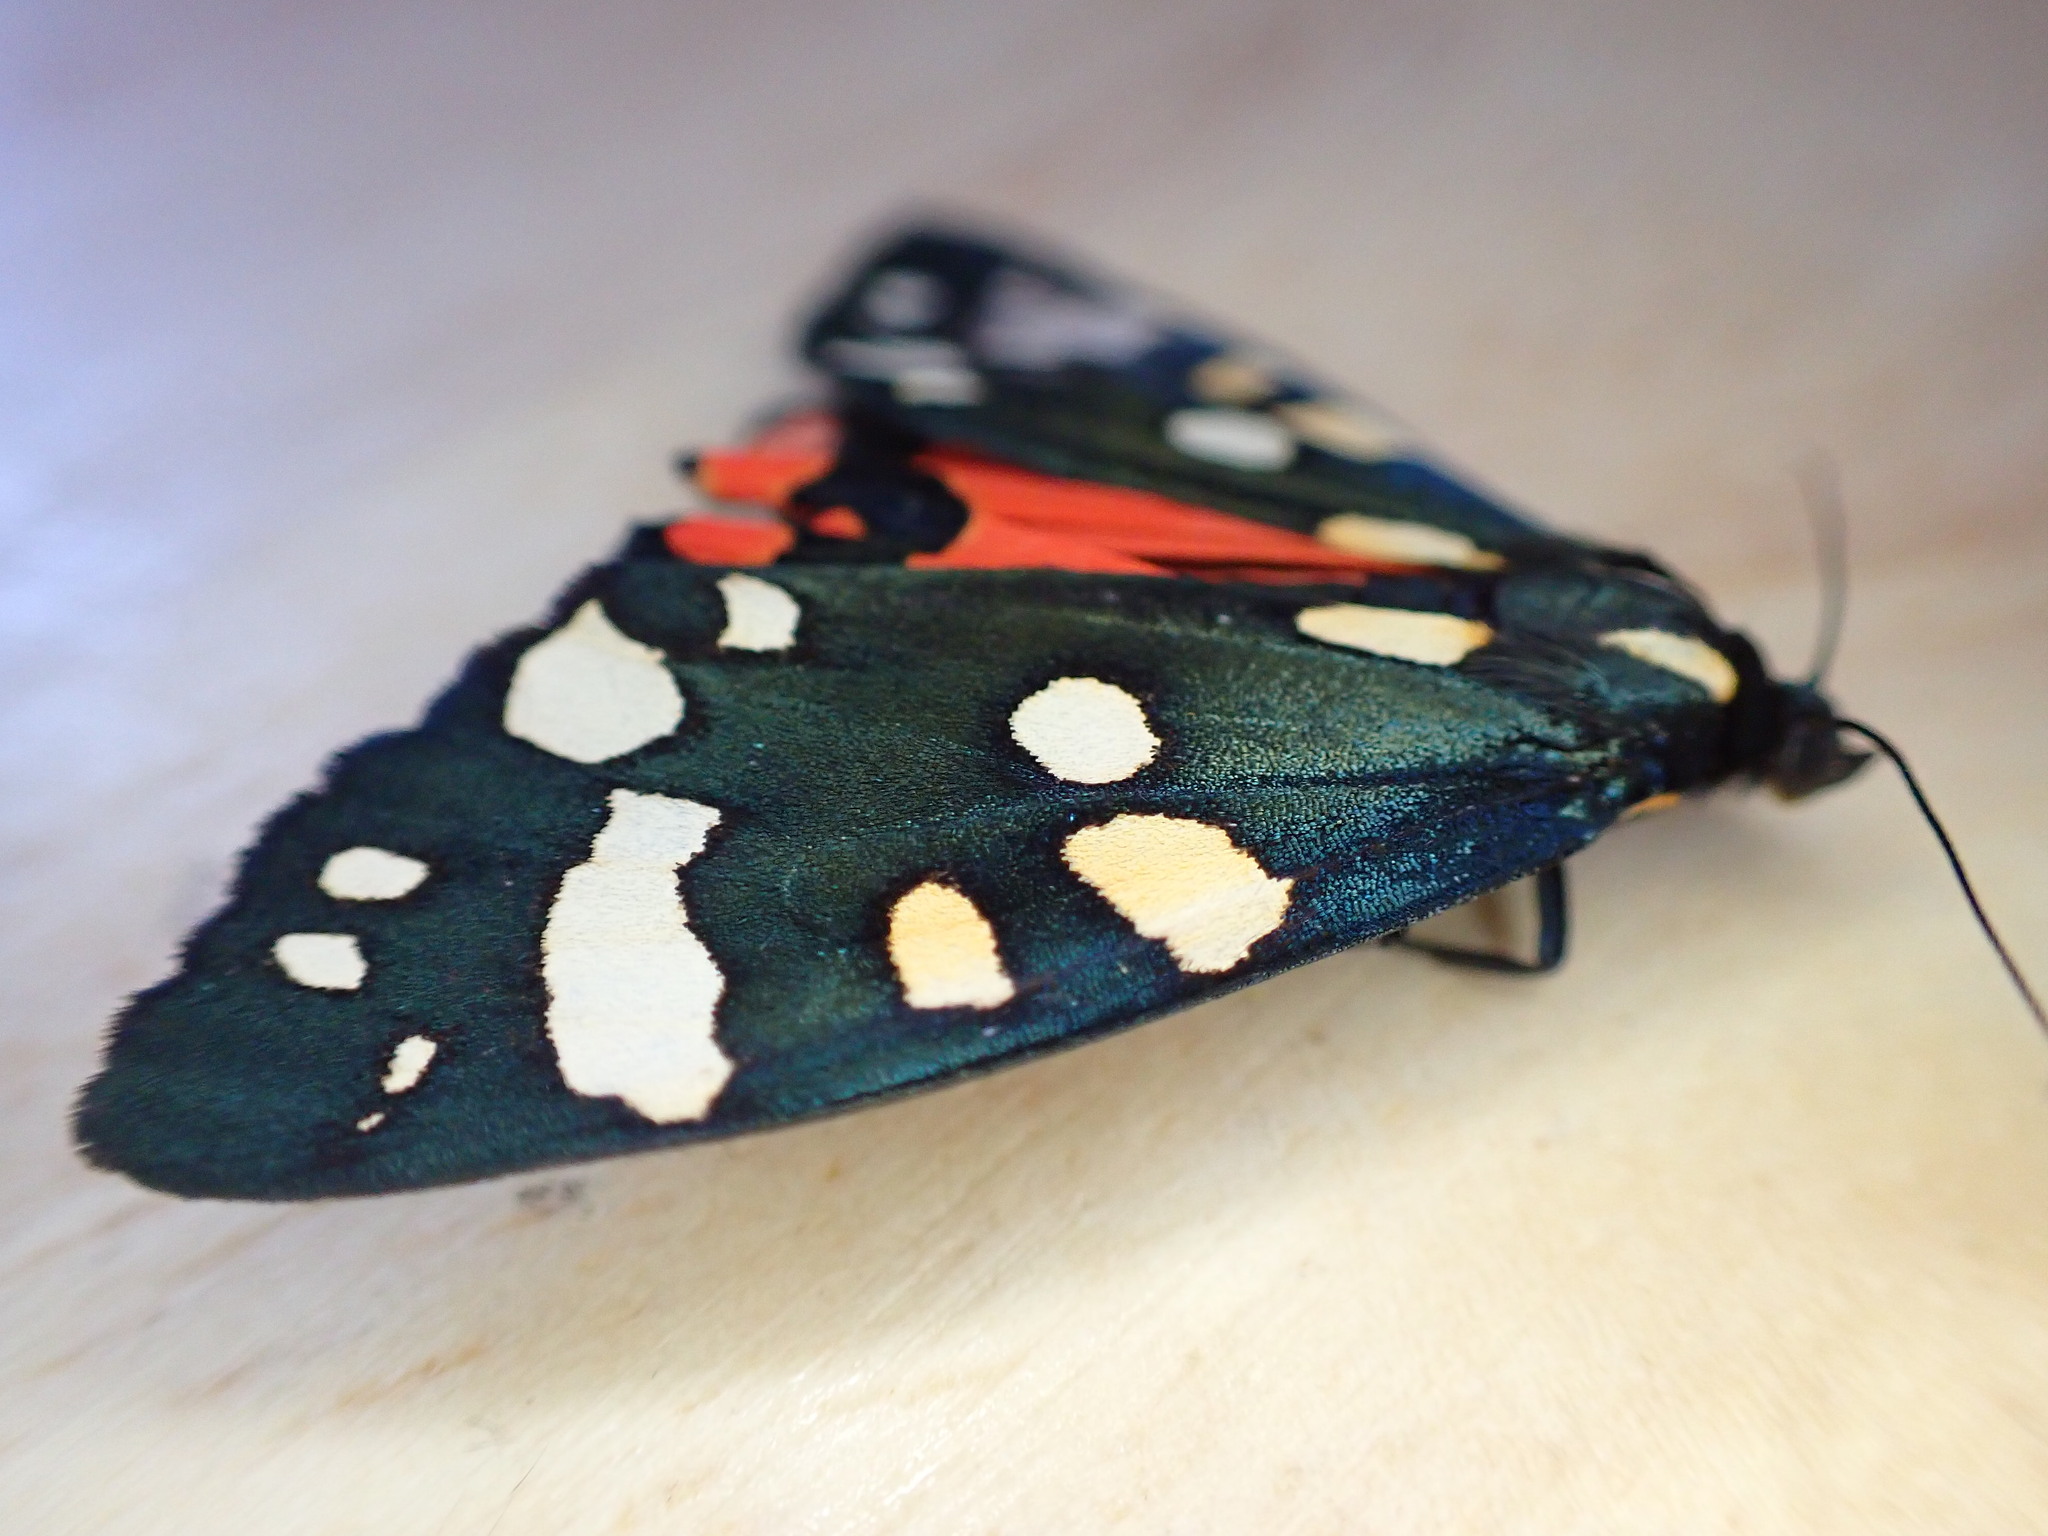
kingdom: Animalia
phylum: Arthropoda
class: Insecta
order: Lepidoptera
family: Erebidae
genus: Callimorpha
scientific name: Callimorpha dominula
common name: Scarlet tiger
